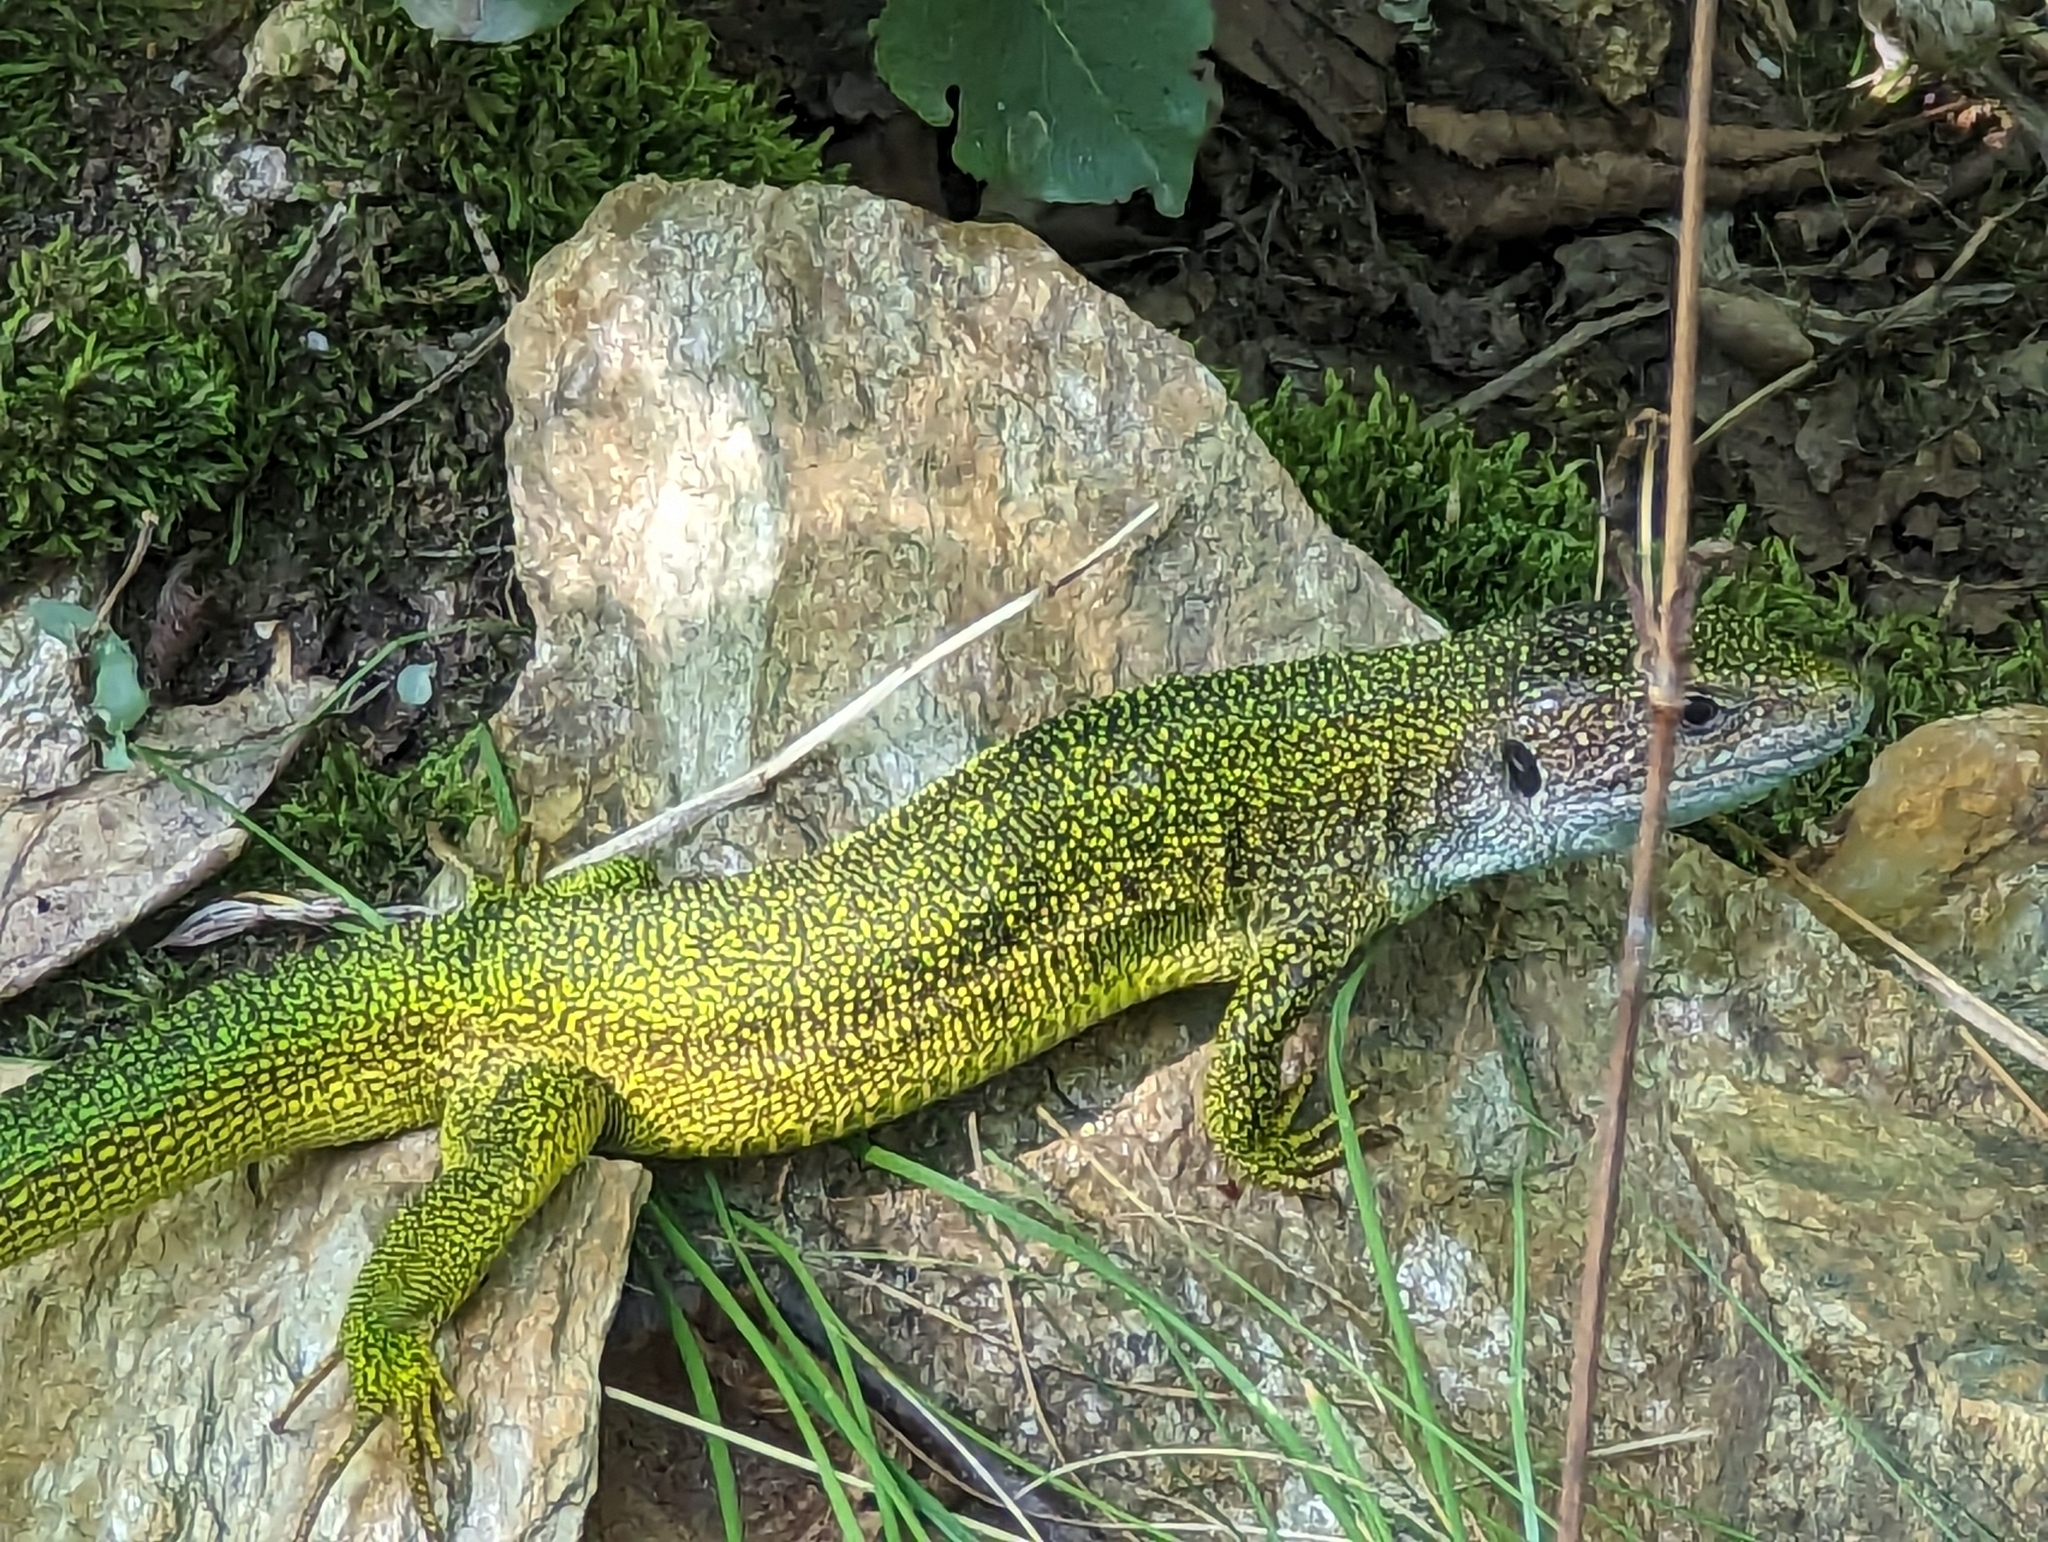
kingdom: Animalia
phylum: Chordata
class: Squamata
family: Lacertidae
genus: Lacerta
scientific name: Lacerta viridis
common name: European green lizard
